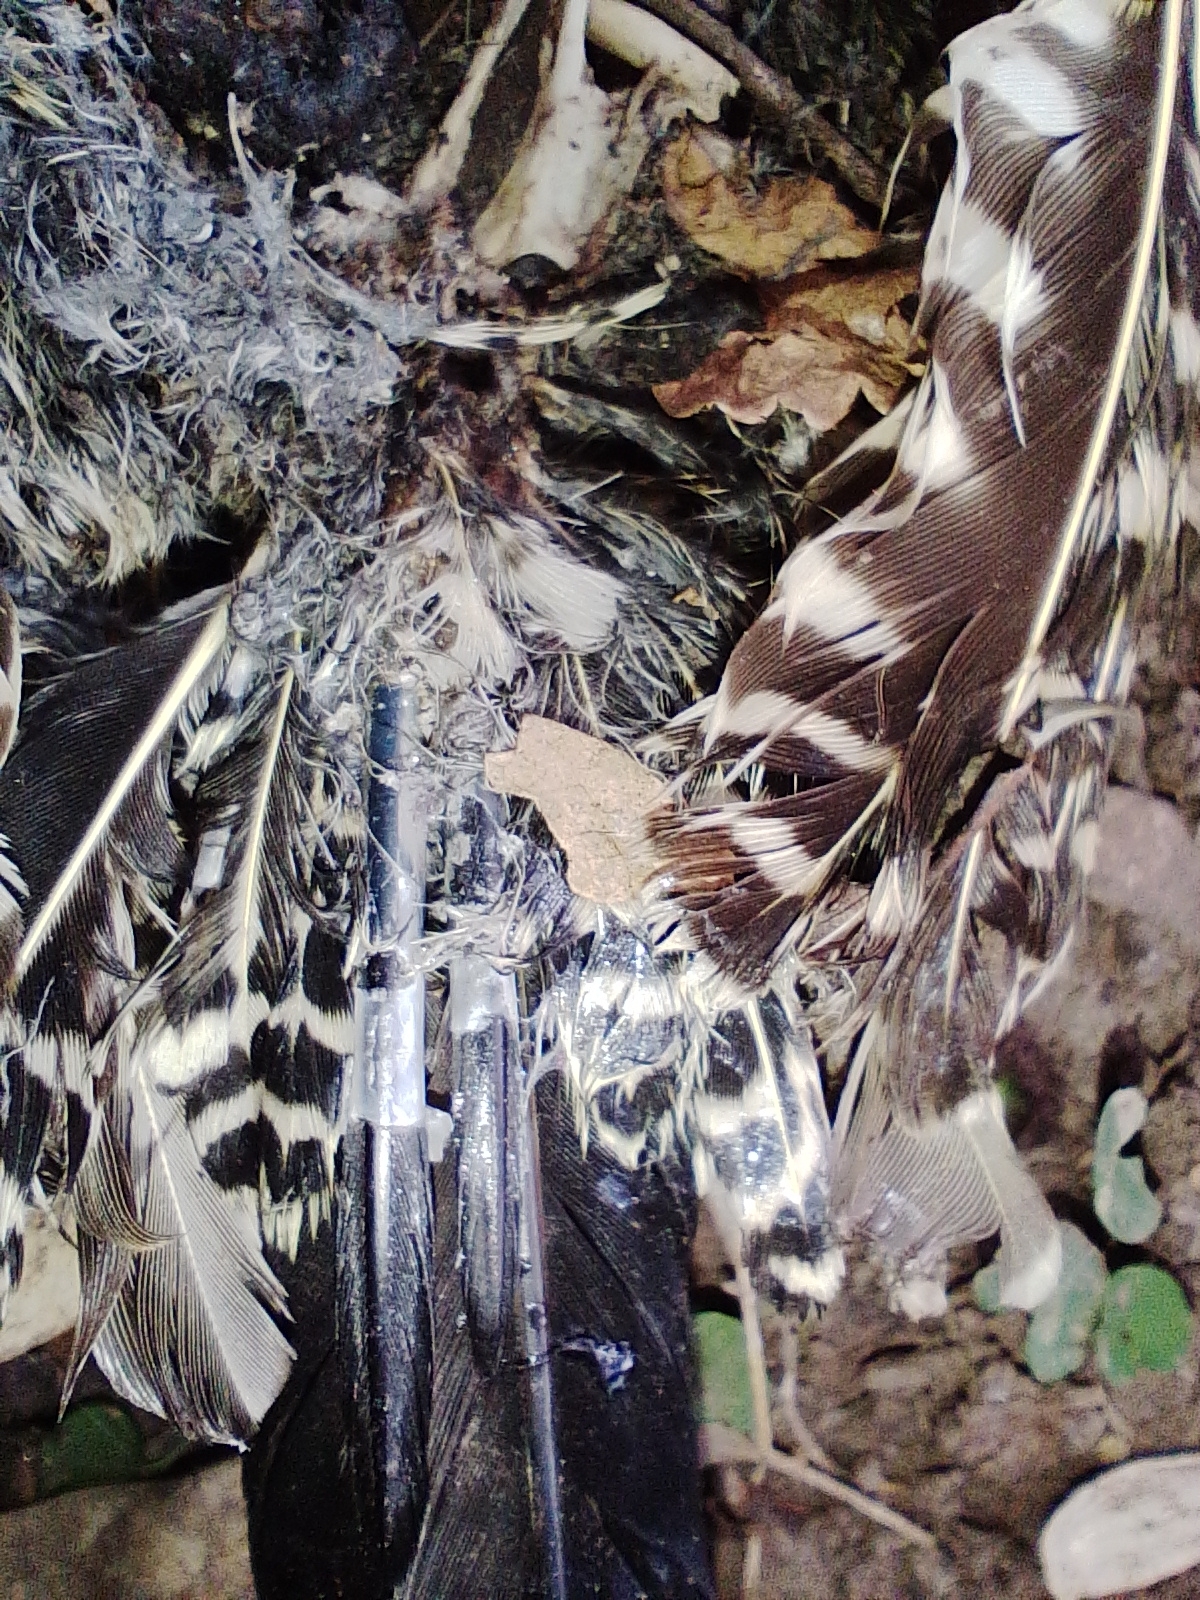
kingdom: Animalia
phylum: Chordata
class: Aves
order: Piciformes
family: Picidae
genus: Colaptes
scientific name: Colaptes melanochloros
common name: Green-barred woodpecker
